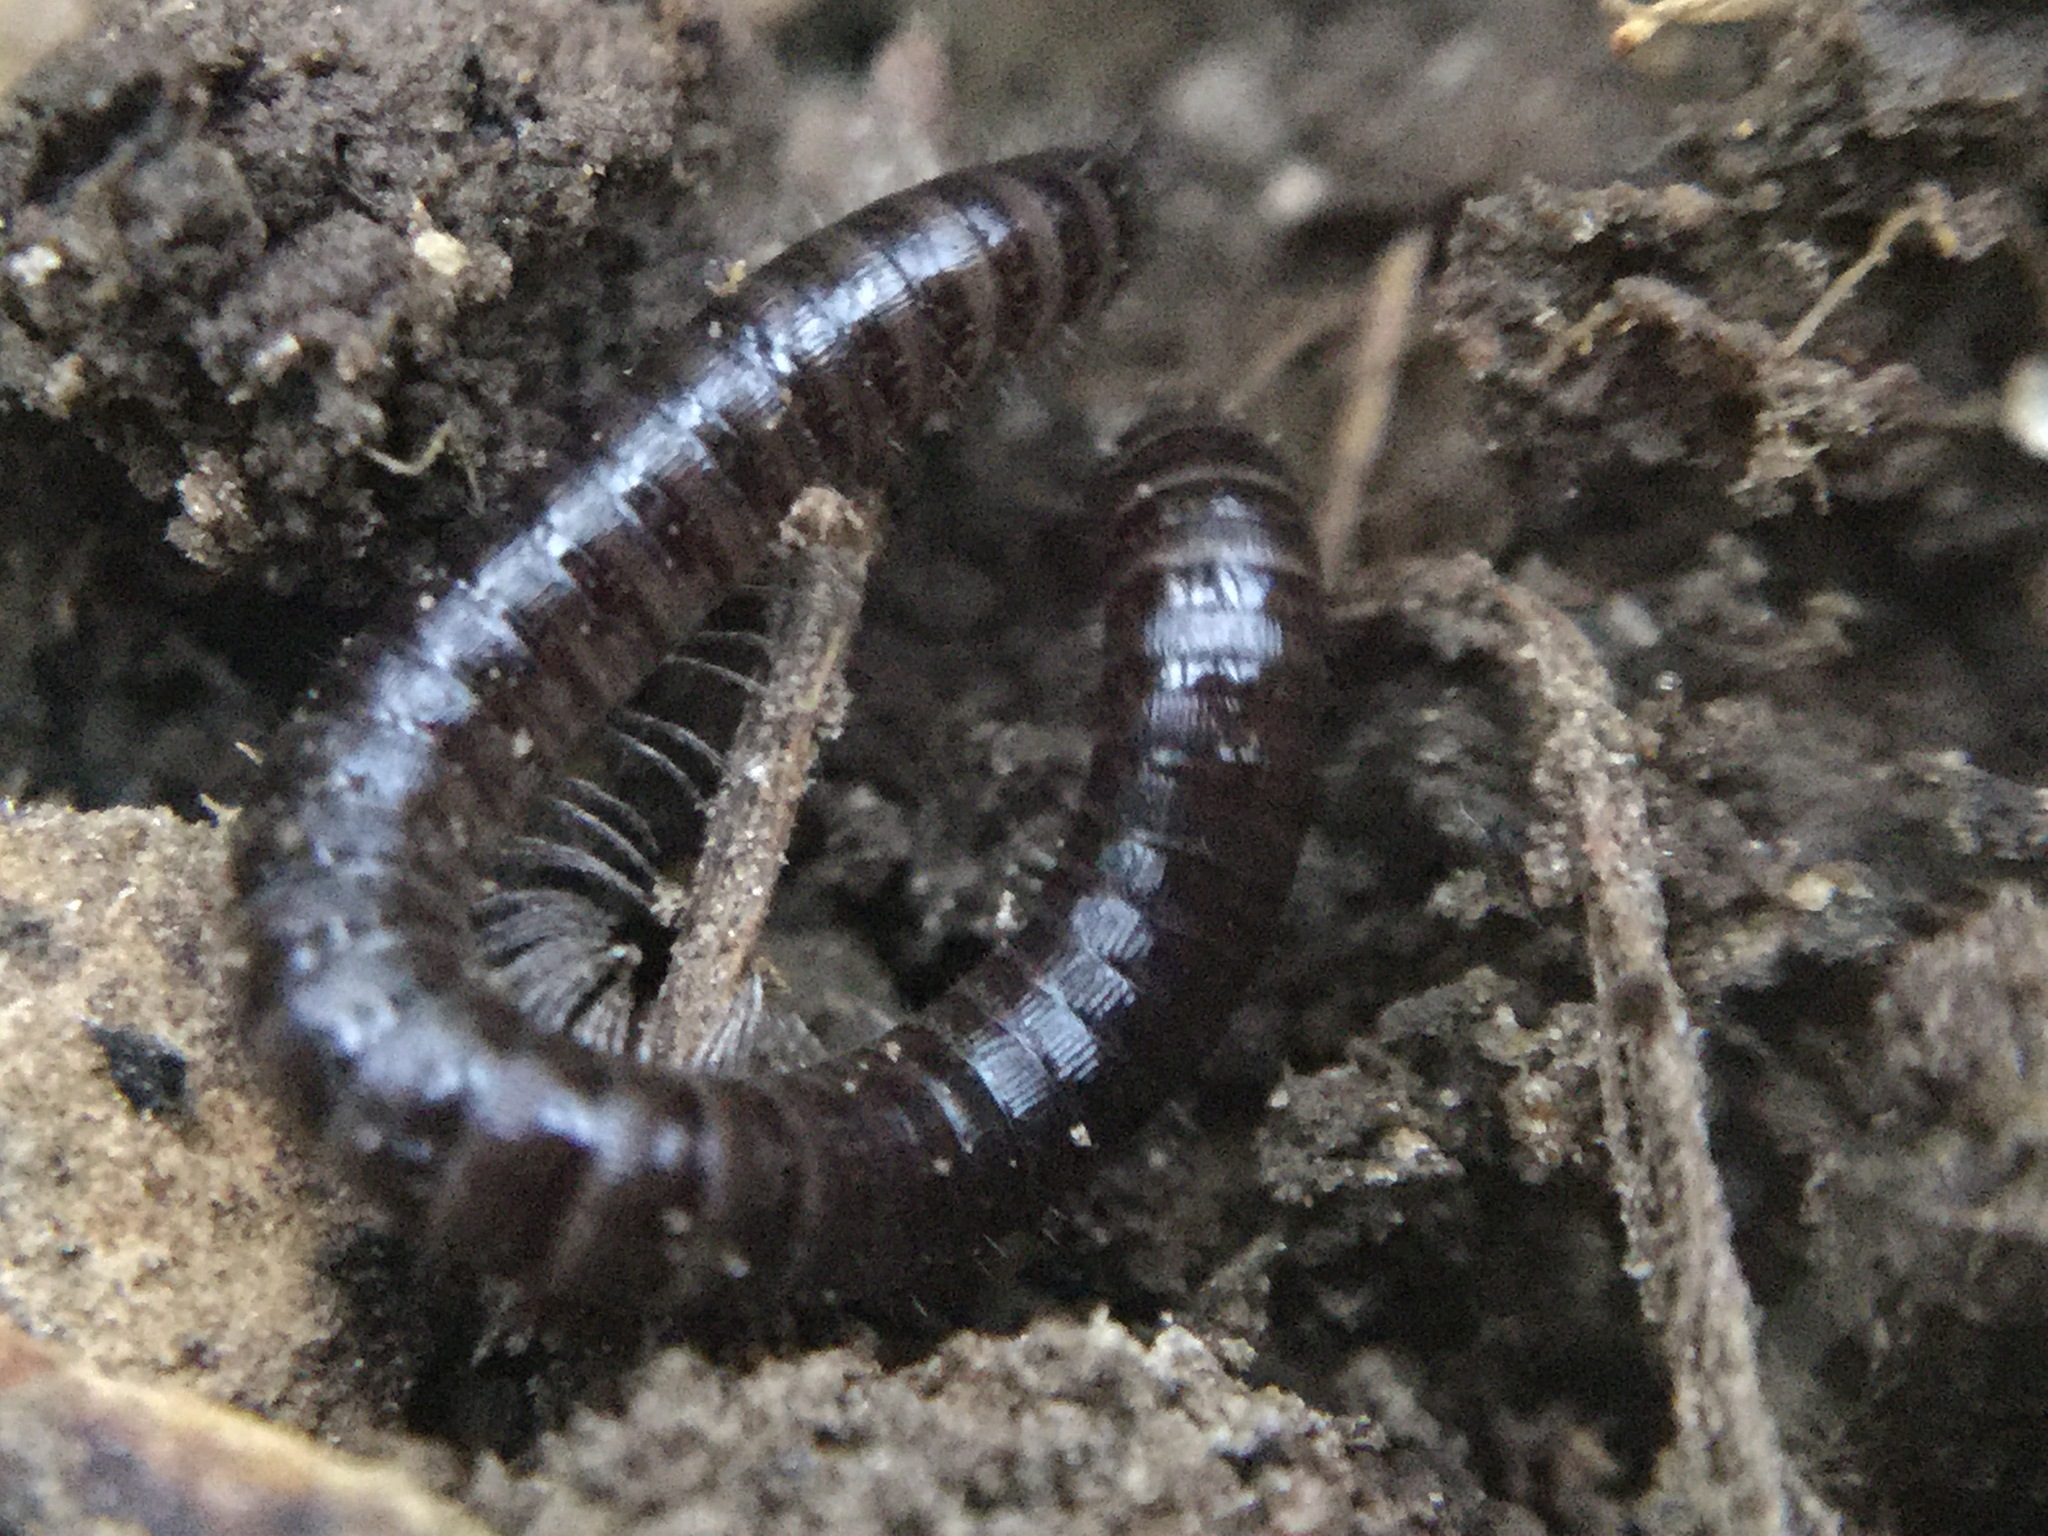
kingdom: Animalia
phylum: Arthropoda
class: Diplopoda
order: Julida
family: Julidae
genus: Ophyiulus
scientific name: Ophyiulus pilosus
